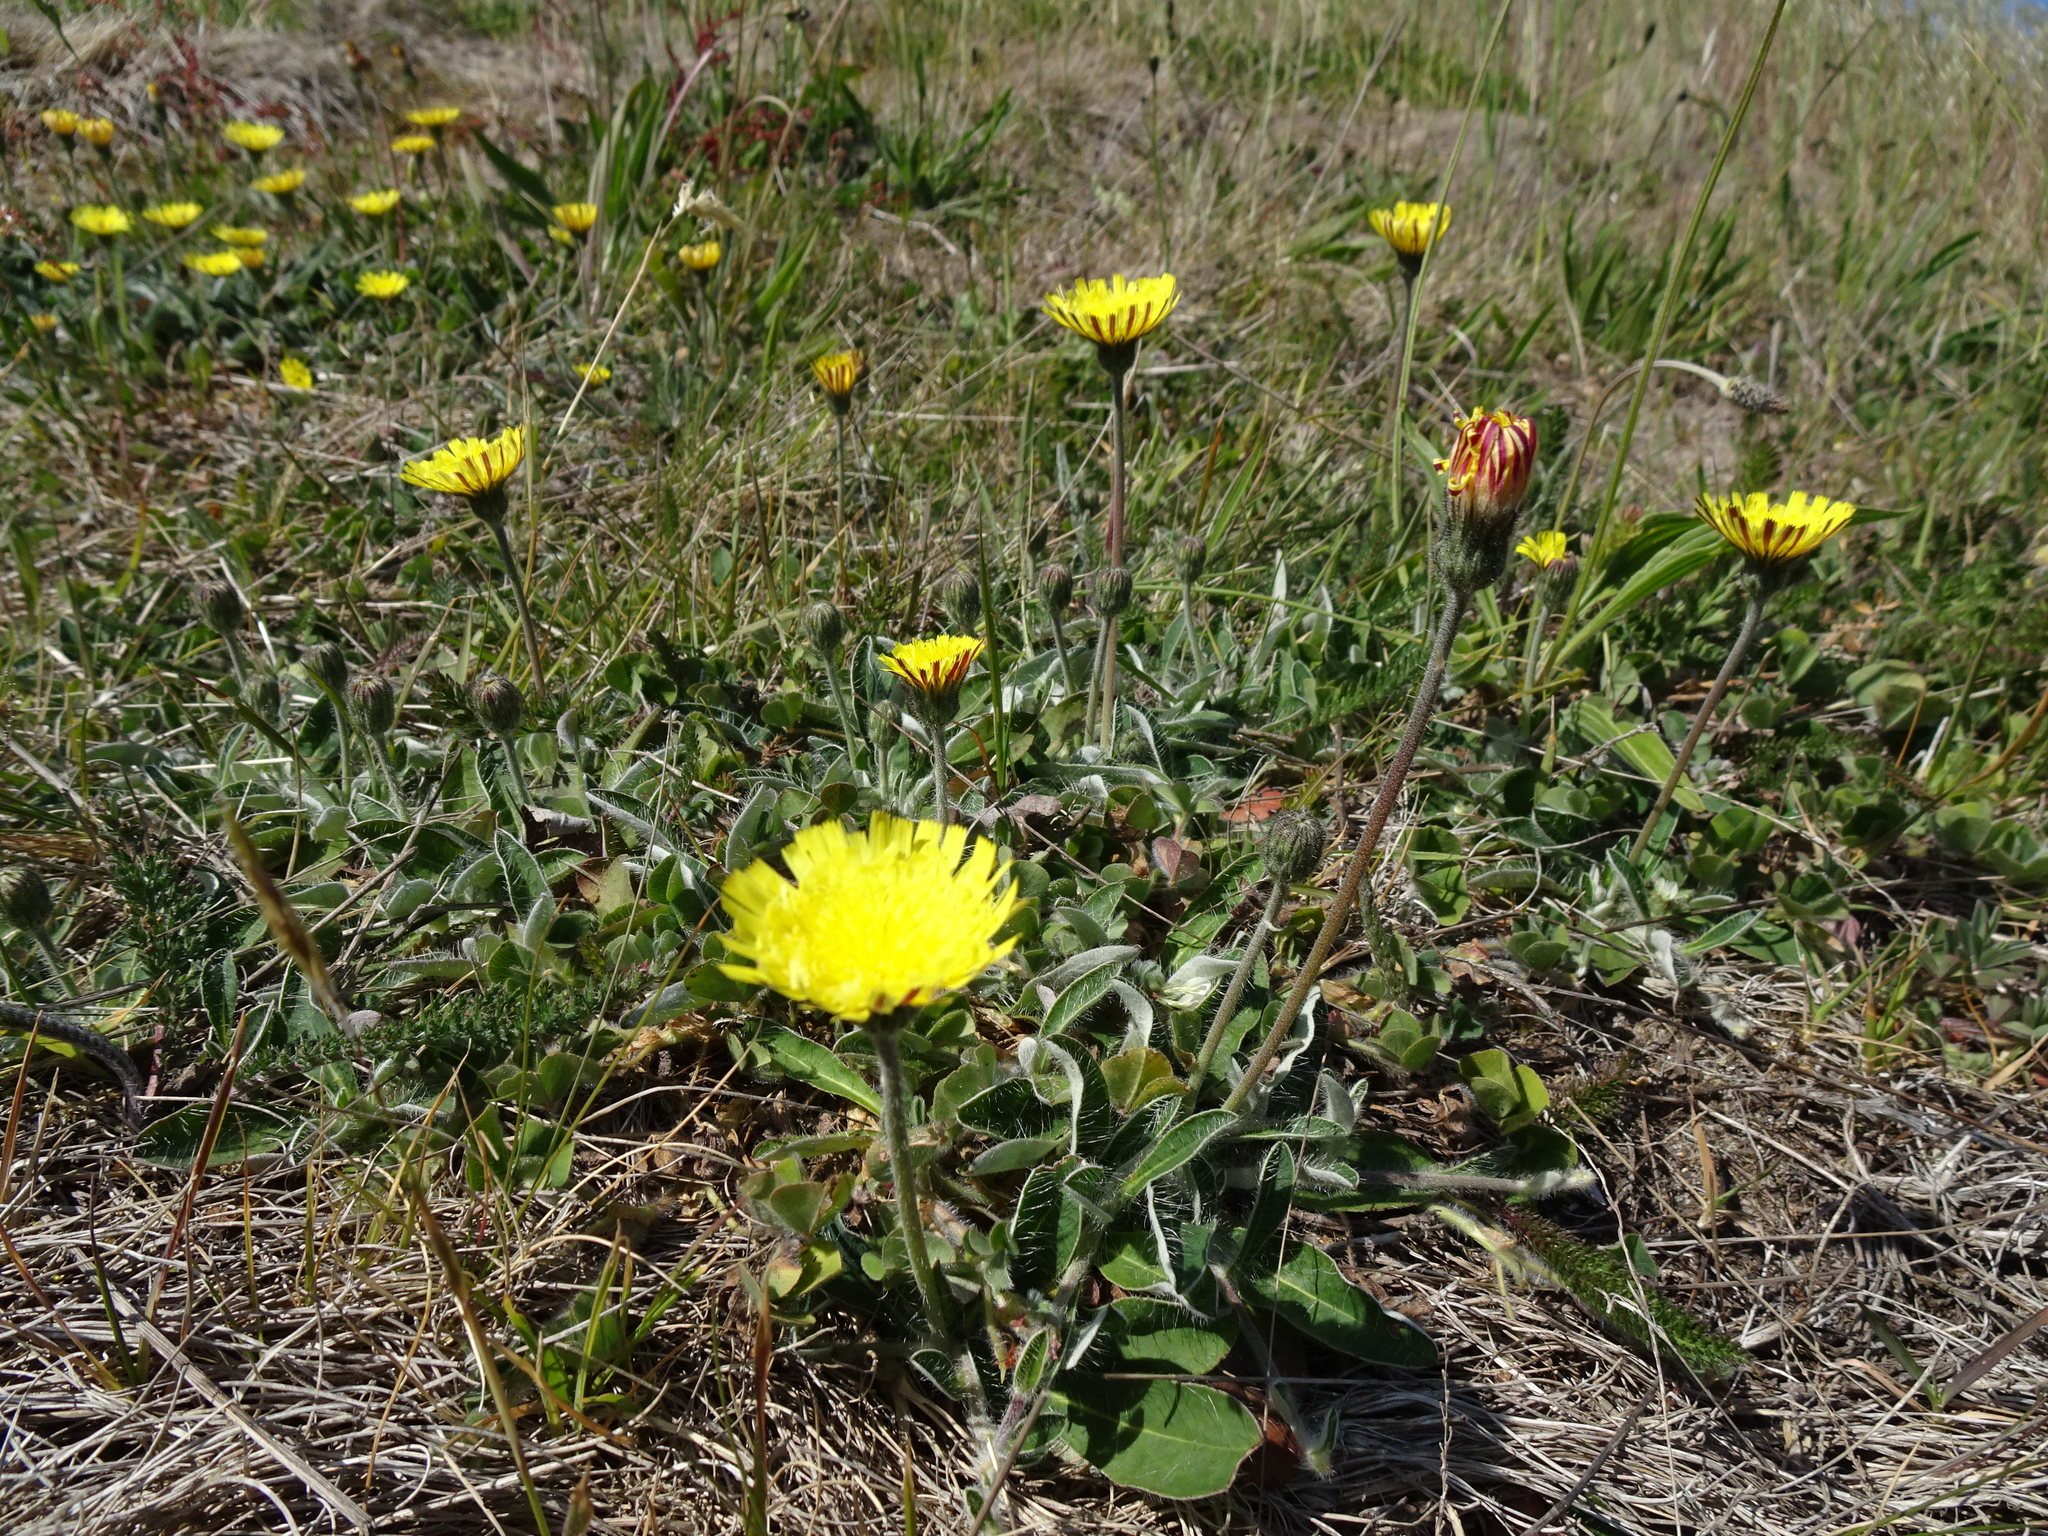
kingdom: Plantae
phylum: Tracheophyta
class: Magnoliopsida
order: Asterales
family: Asteraceae
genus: Pilosella
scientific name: Pilosella officinarum
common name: Mouse-ear hawkweed
